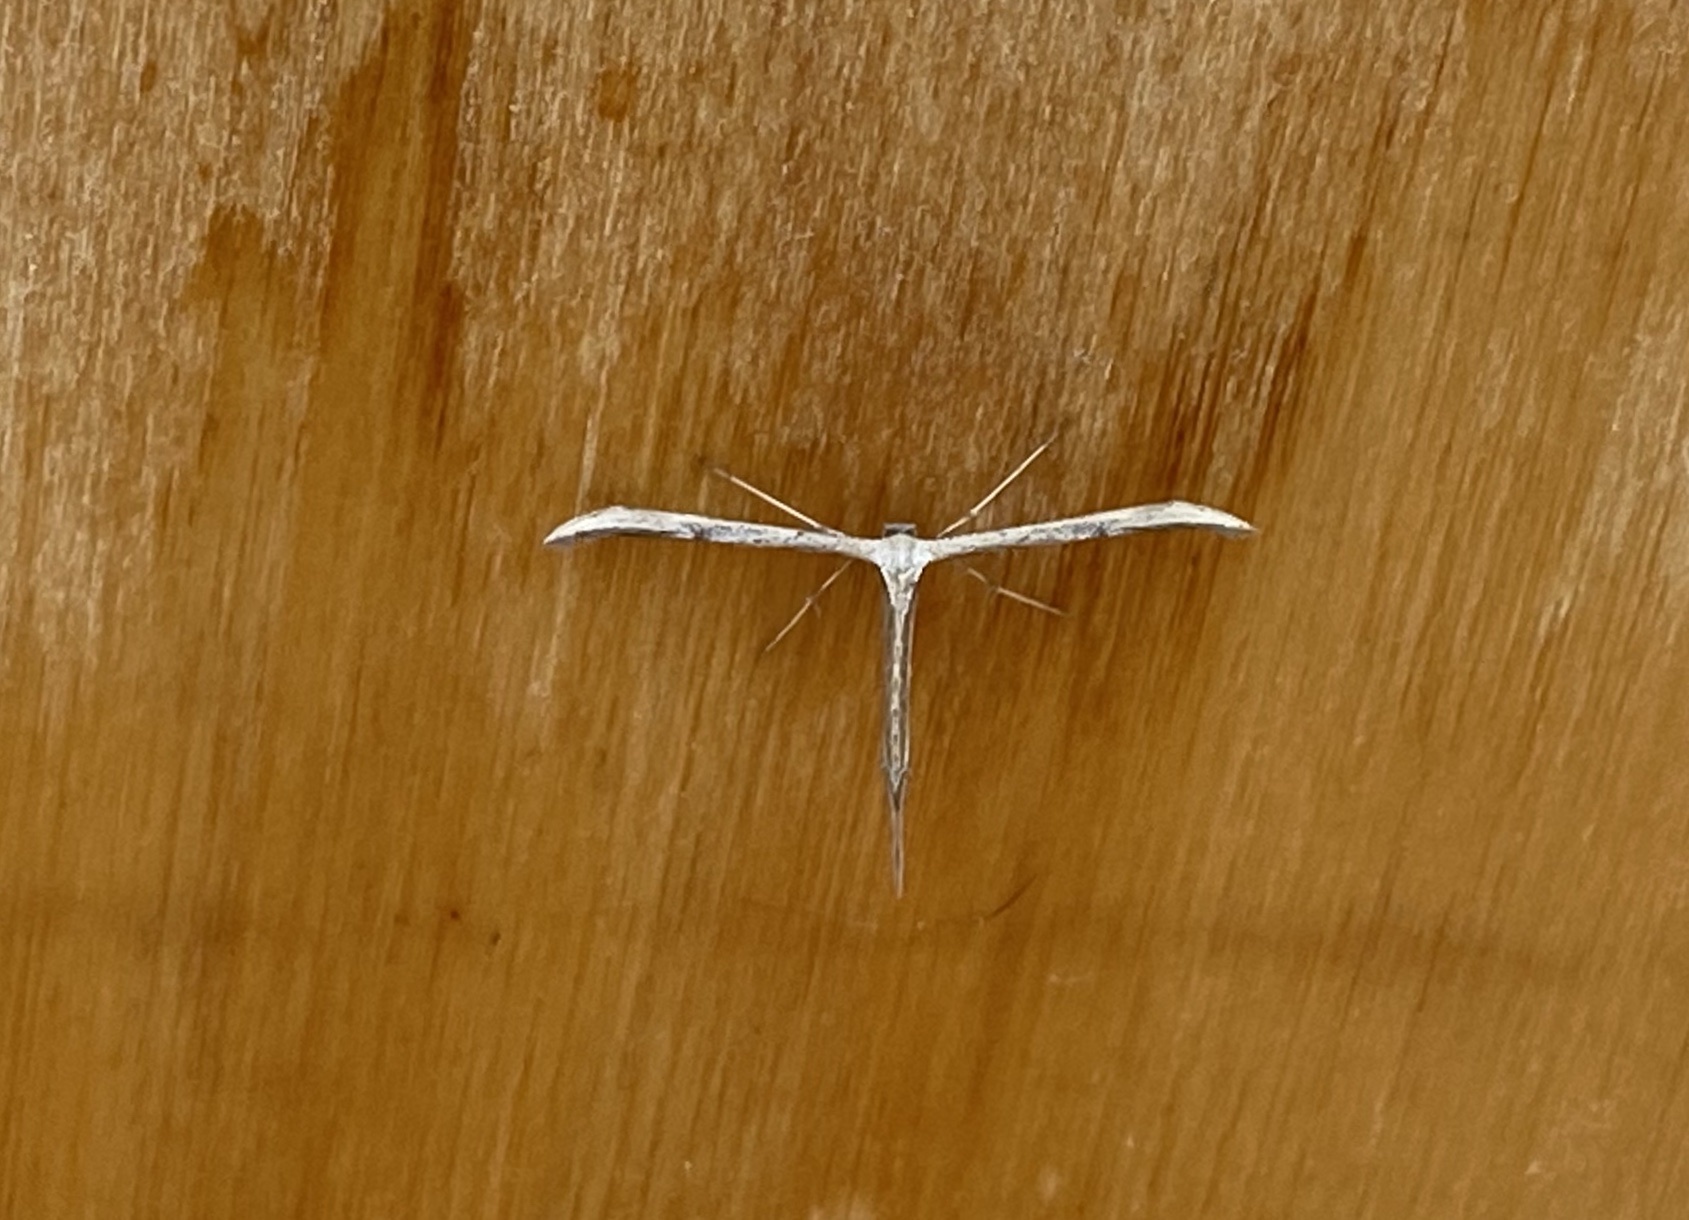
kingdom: Animalia
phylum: Arthropoda
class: Insecta
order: Lepidoptera
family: Pterophoridae
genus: Emmelina
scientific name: Emmelina monodactyla
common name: Common plume
